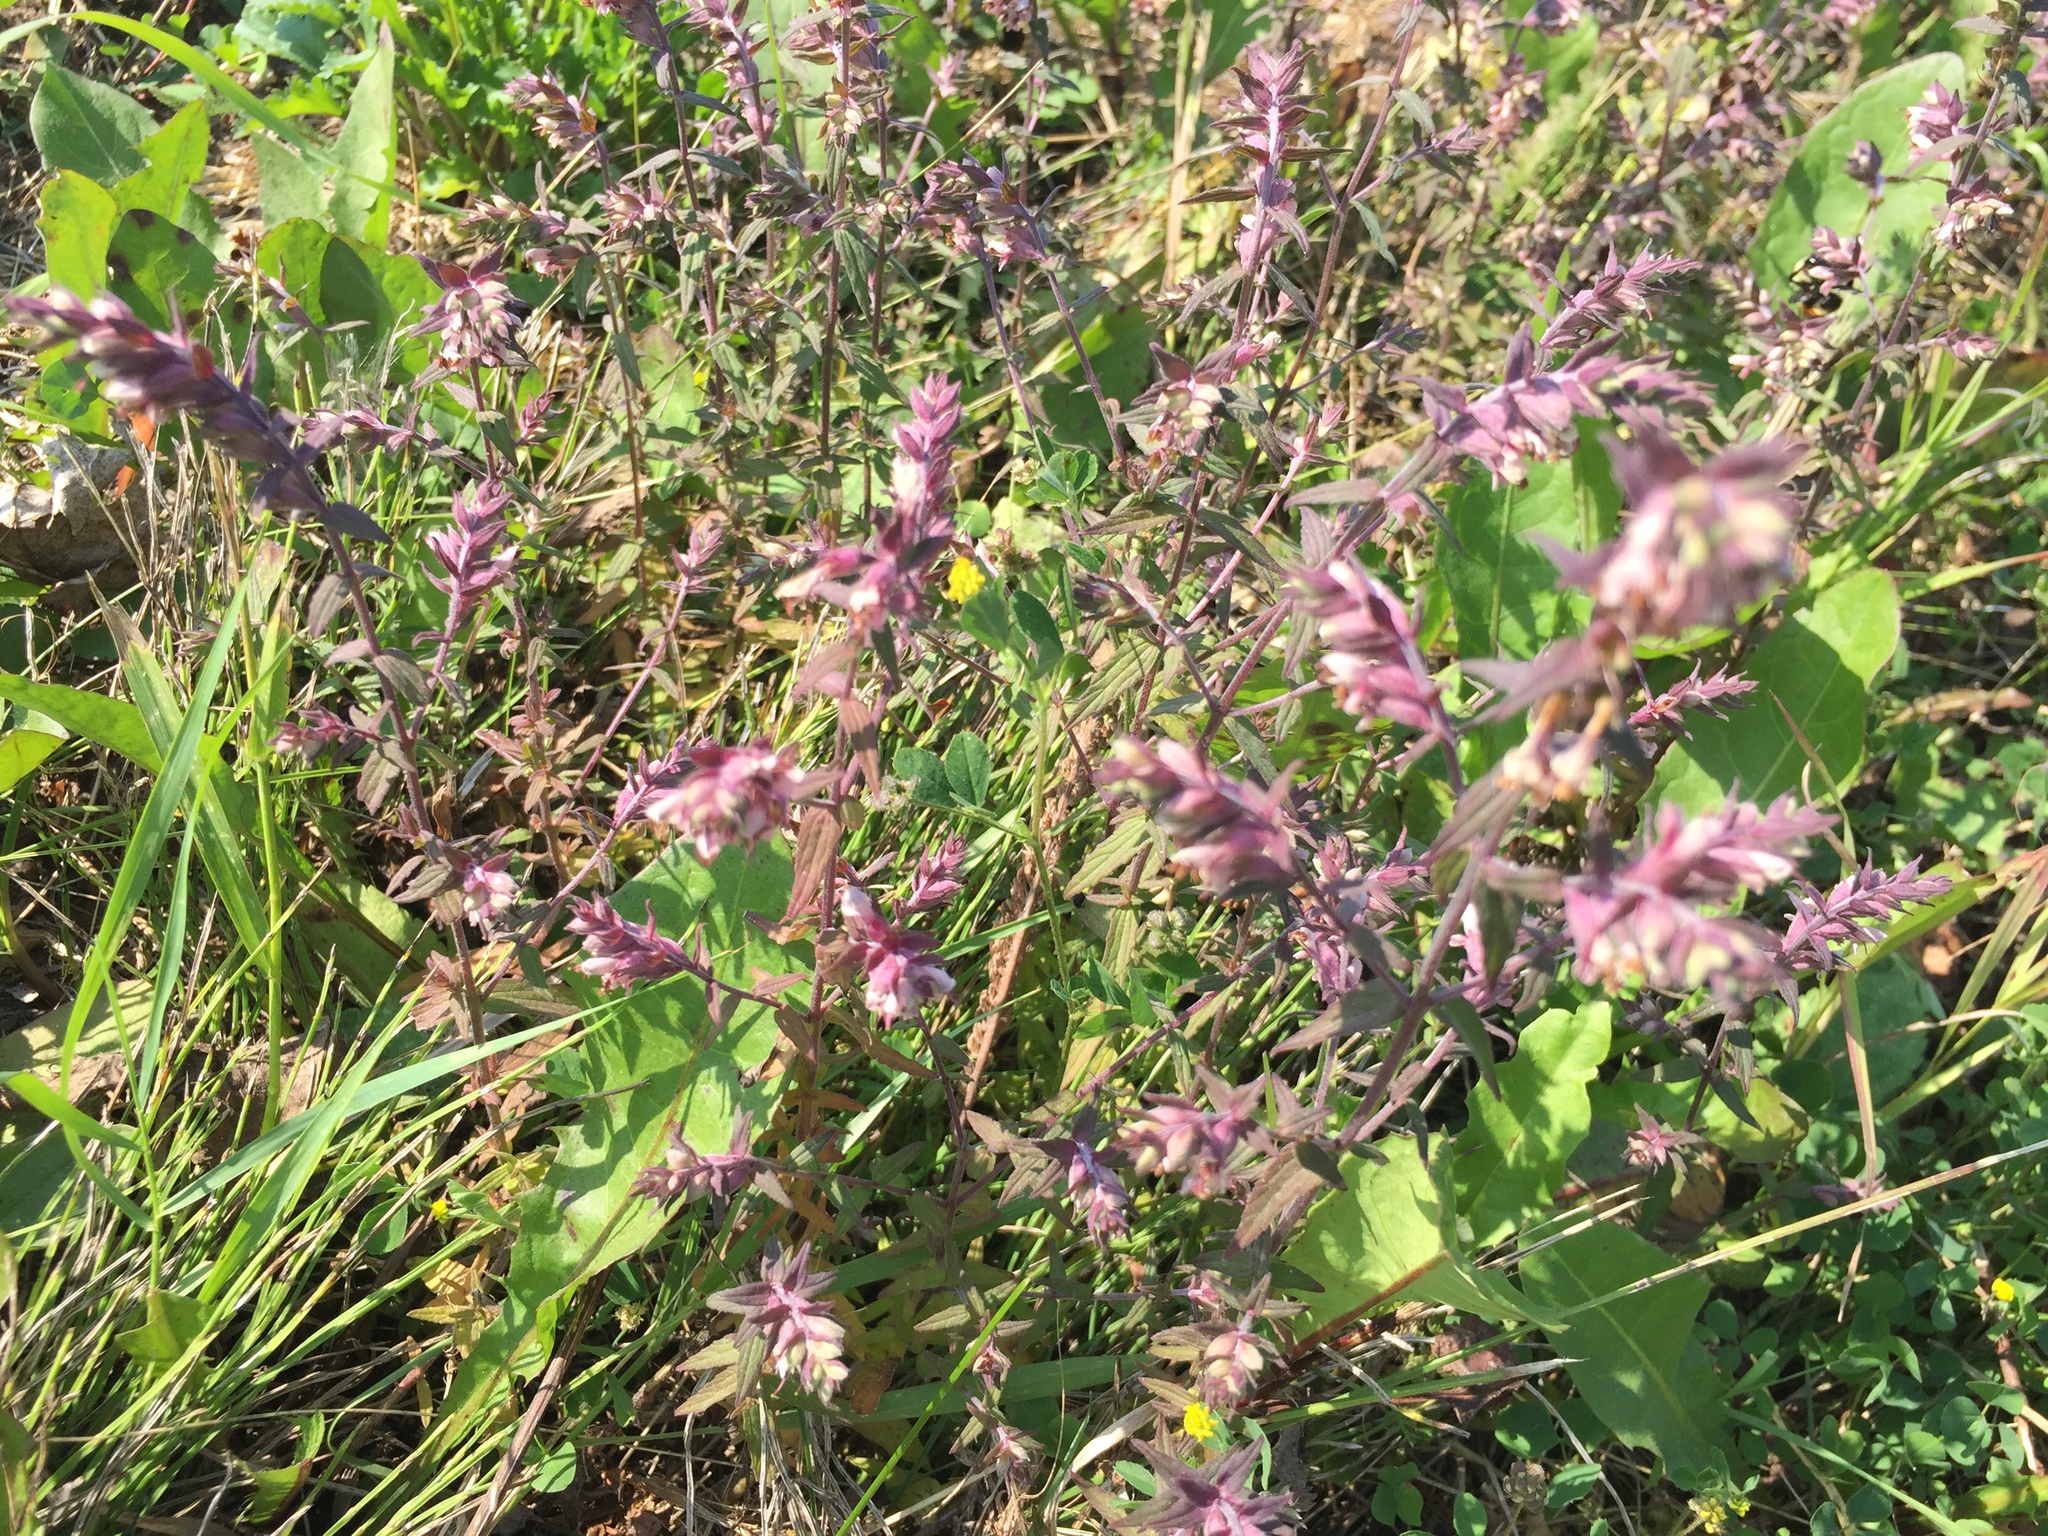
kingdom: Plantae
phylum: Tracheophyta
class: Magnoliopsida
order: Lamiales
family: Orobanchaceae
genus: Odontites
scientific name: Odontites vulgaris
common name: Broomrape
